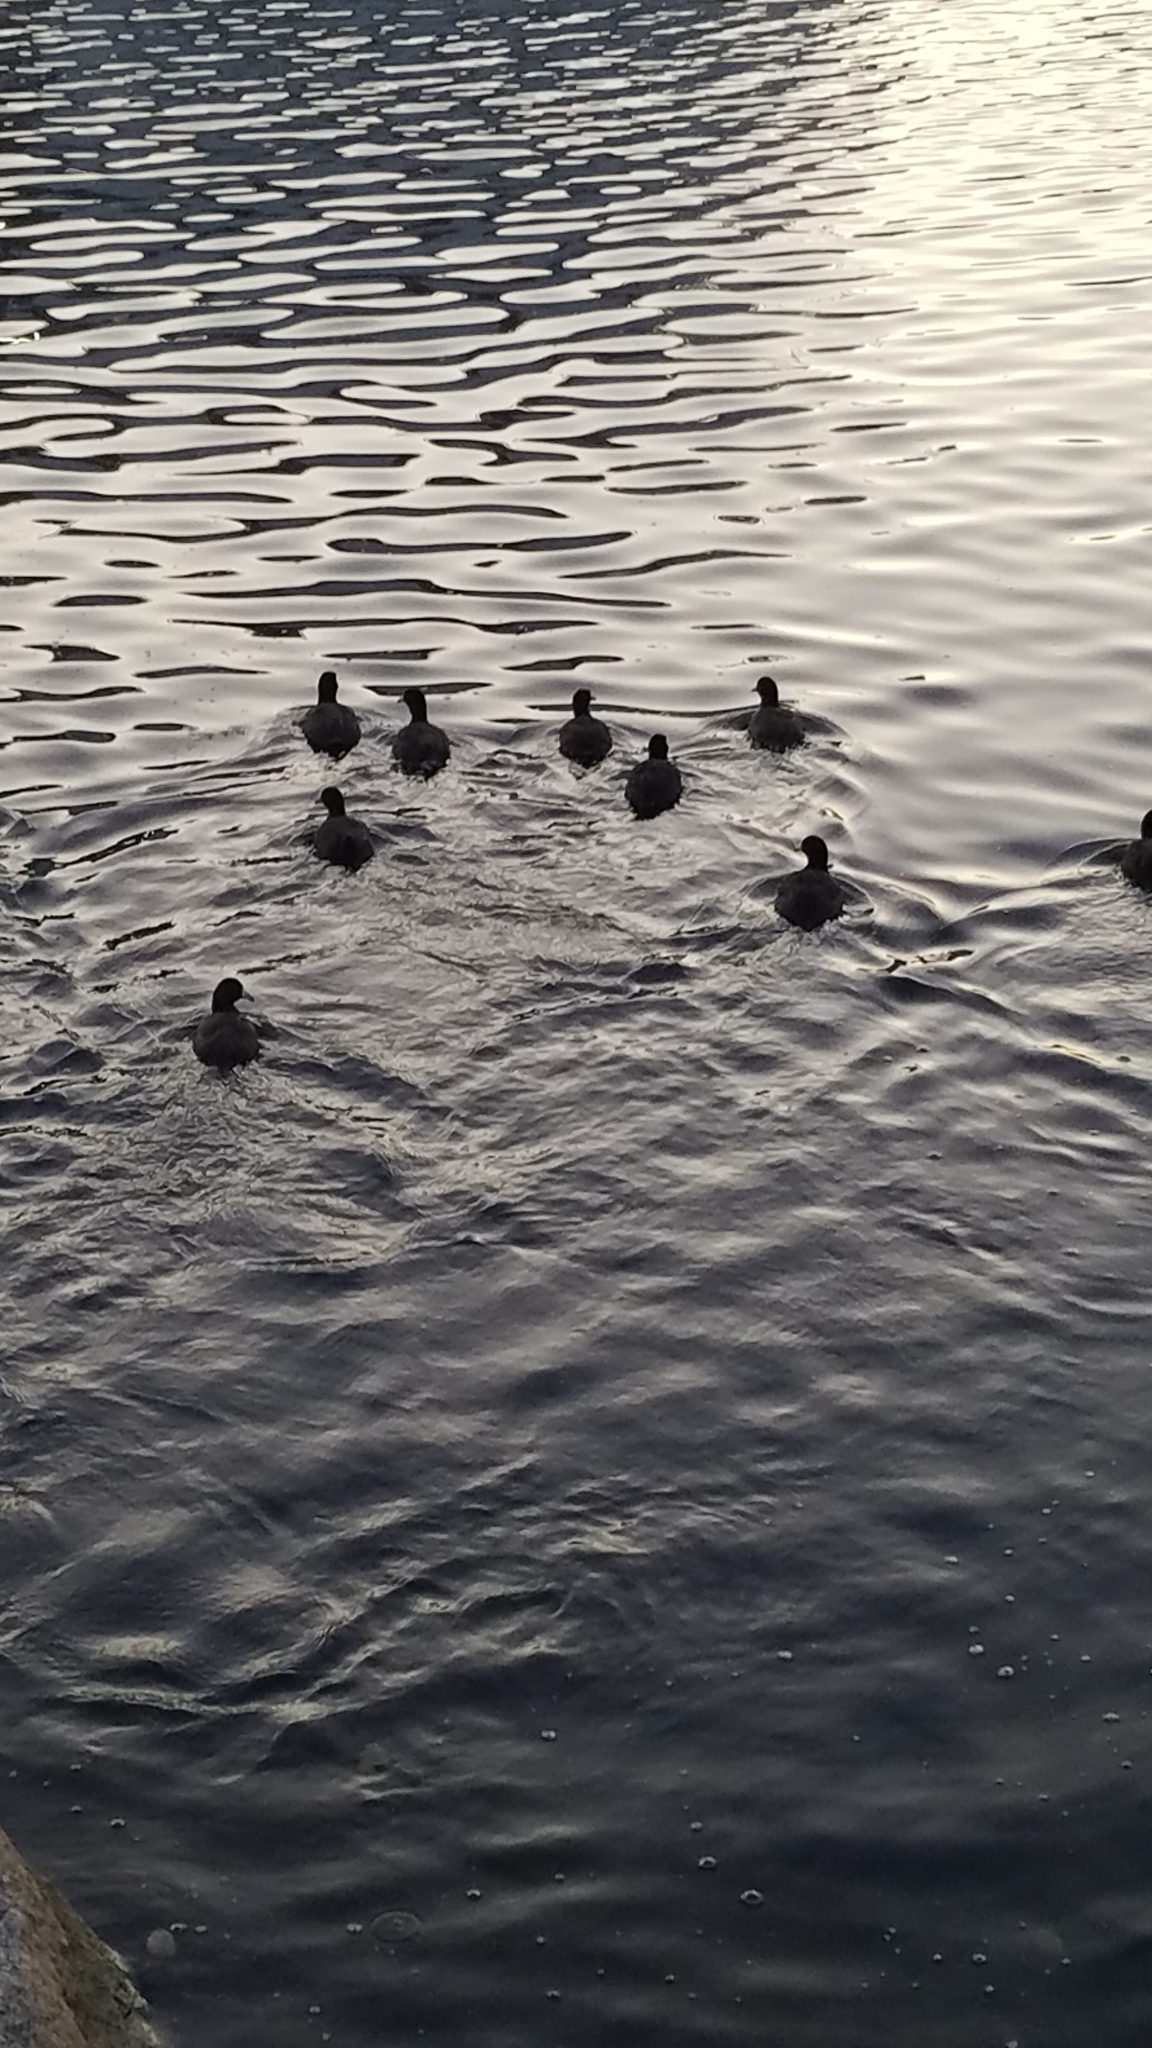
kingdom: Animalia
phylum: Chordata
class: Aves
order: Gruiformes
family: Rallidae
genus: Fulica
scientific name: Fulica americana
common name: American coot
